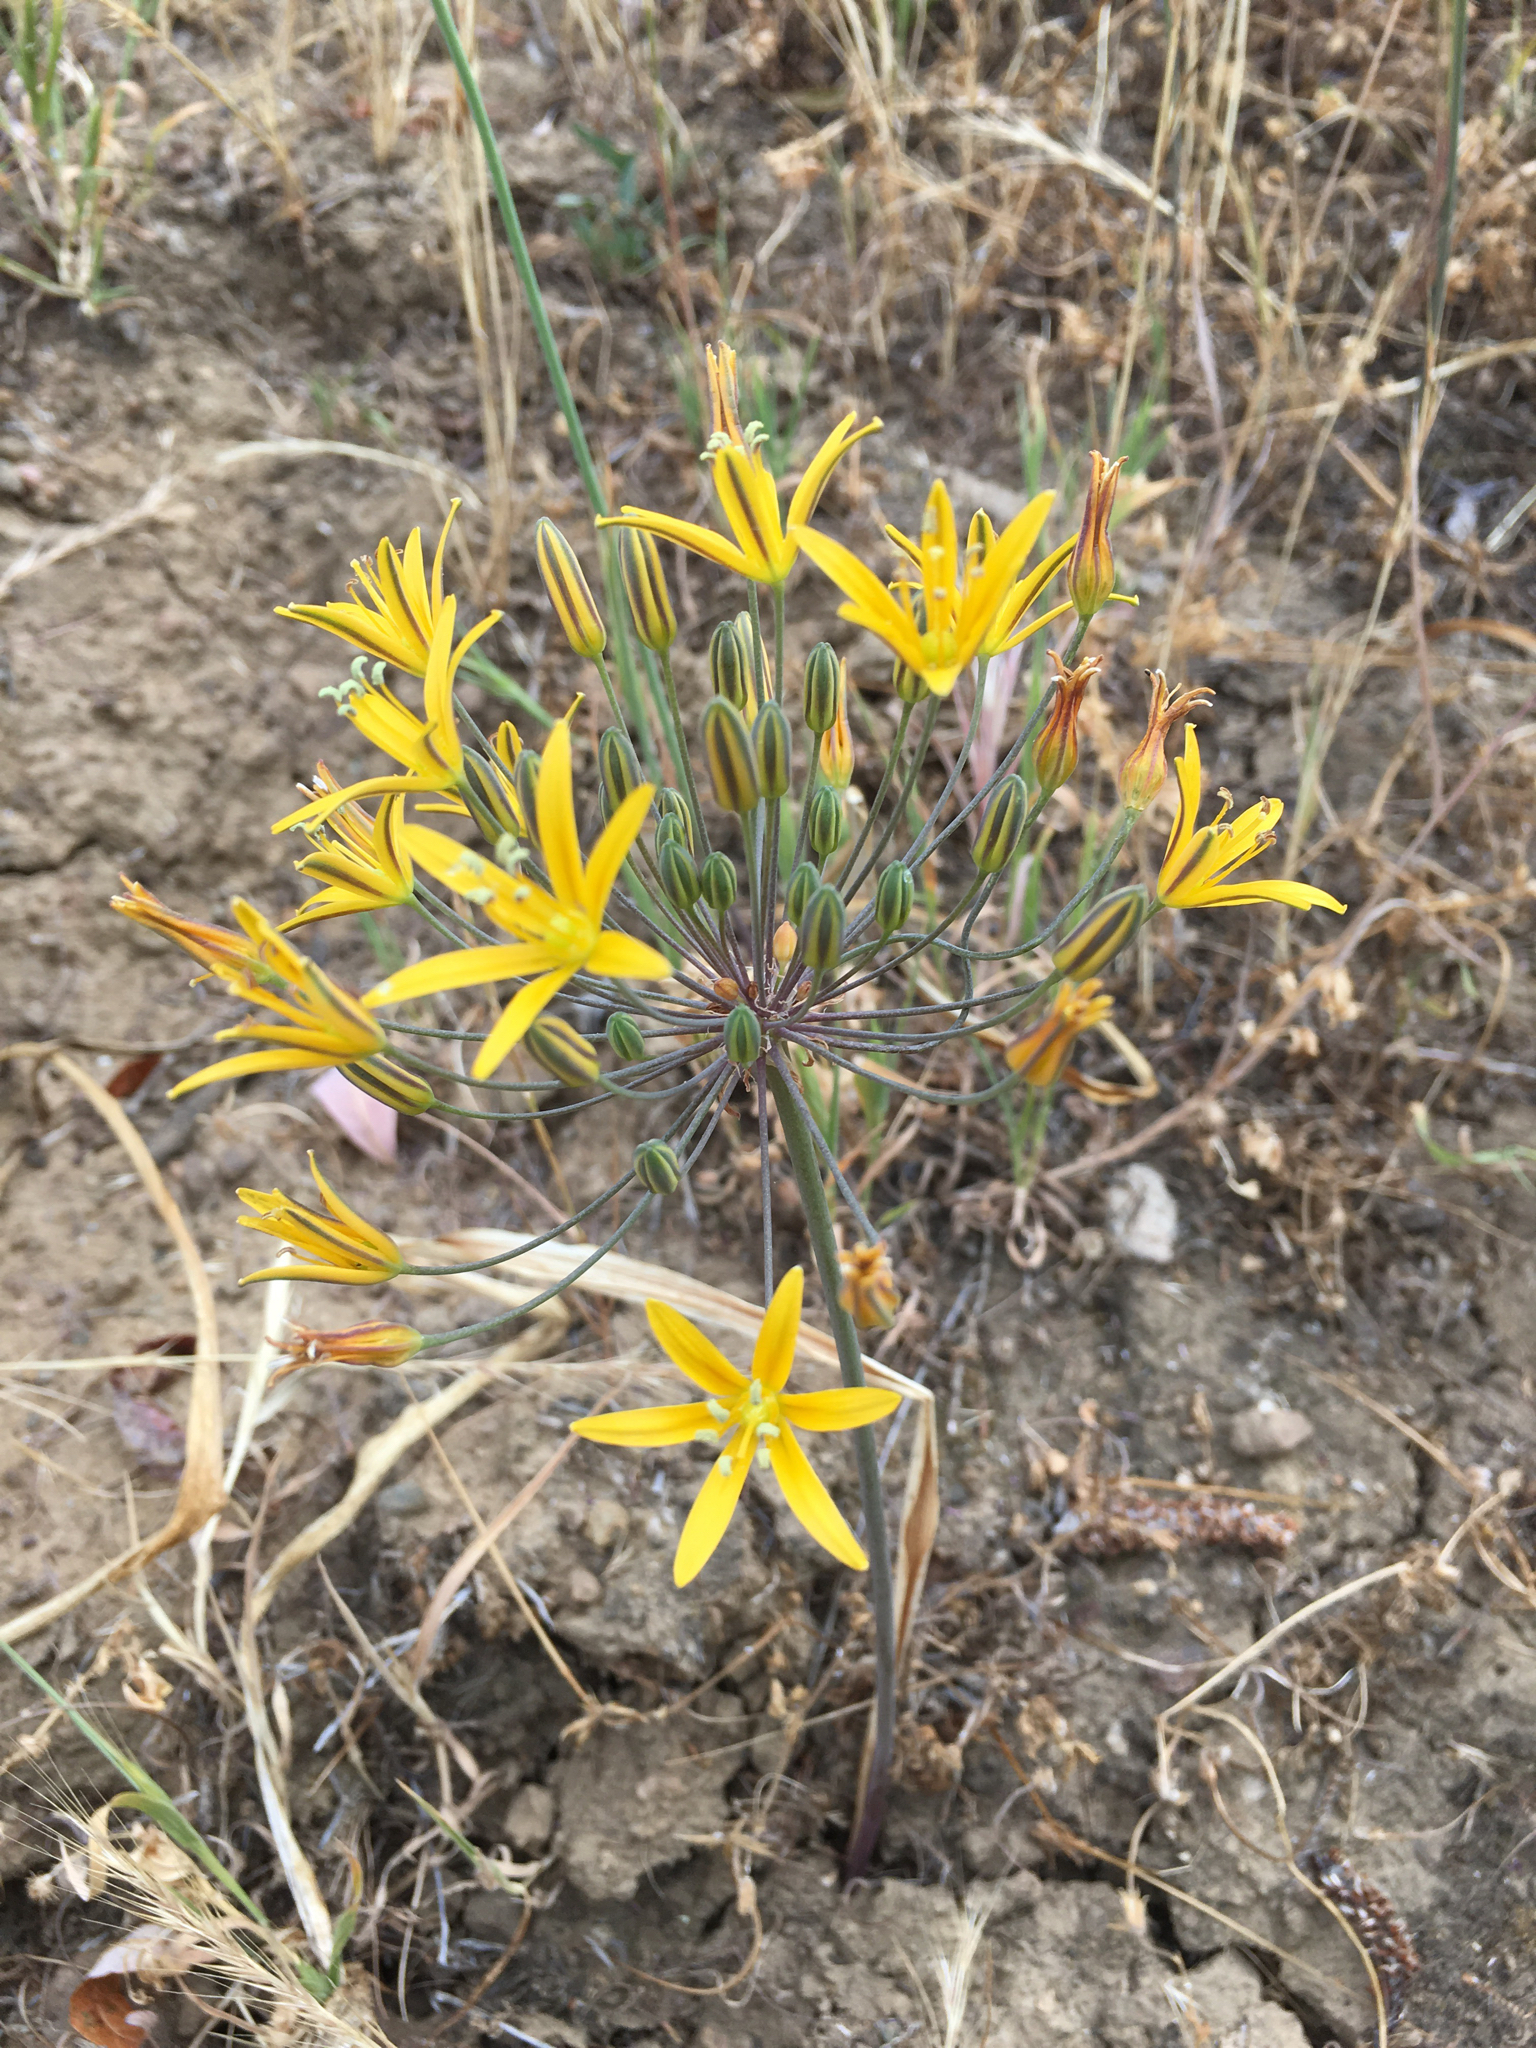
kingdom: Plantae
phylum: Tracheophyta
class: Liliopsida
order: Asparagales
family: Asparagaceae
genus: Bloomeria
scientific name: Bloomeria crocea
